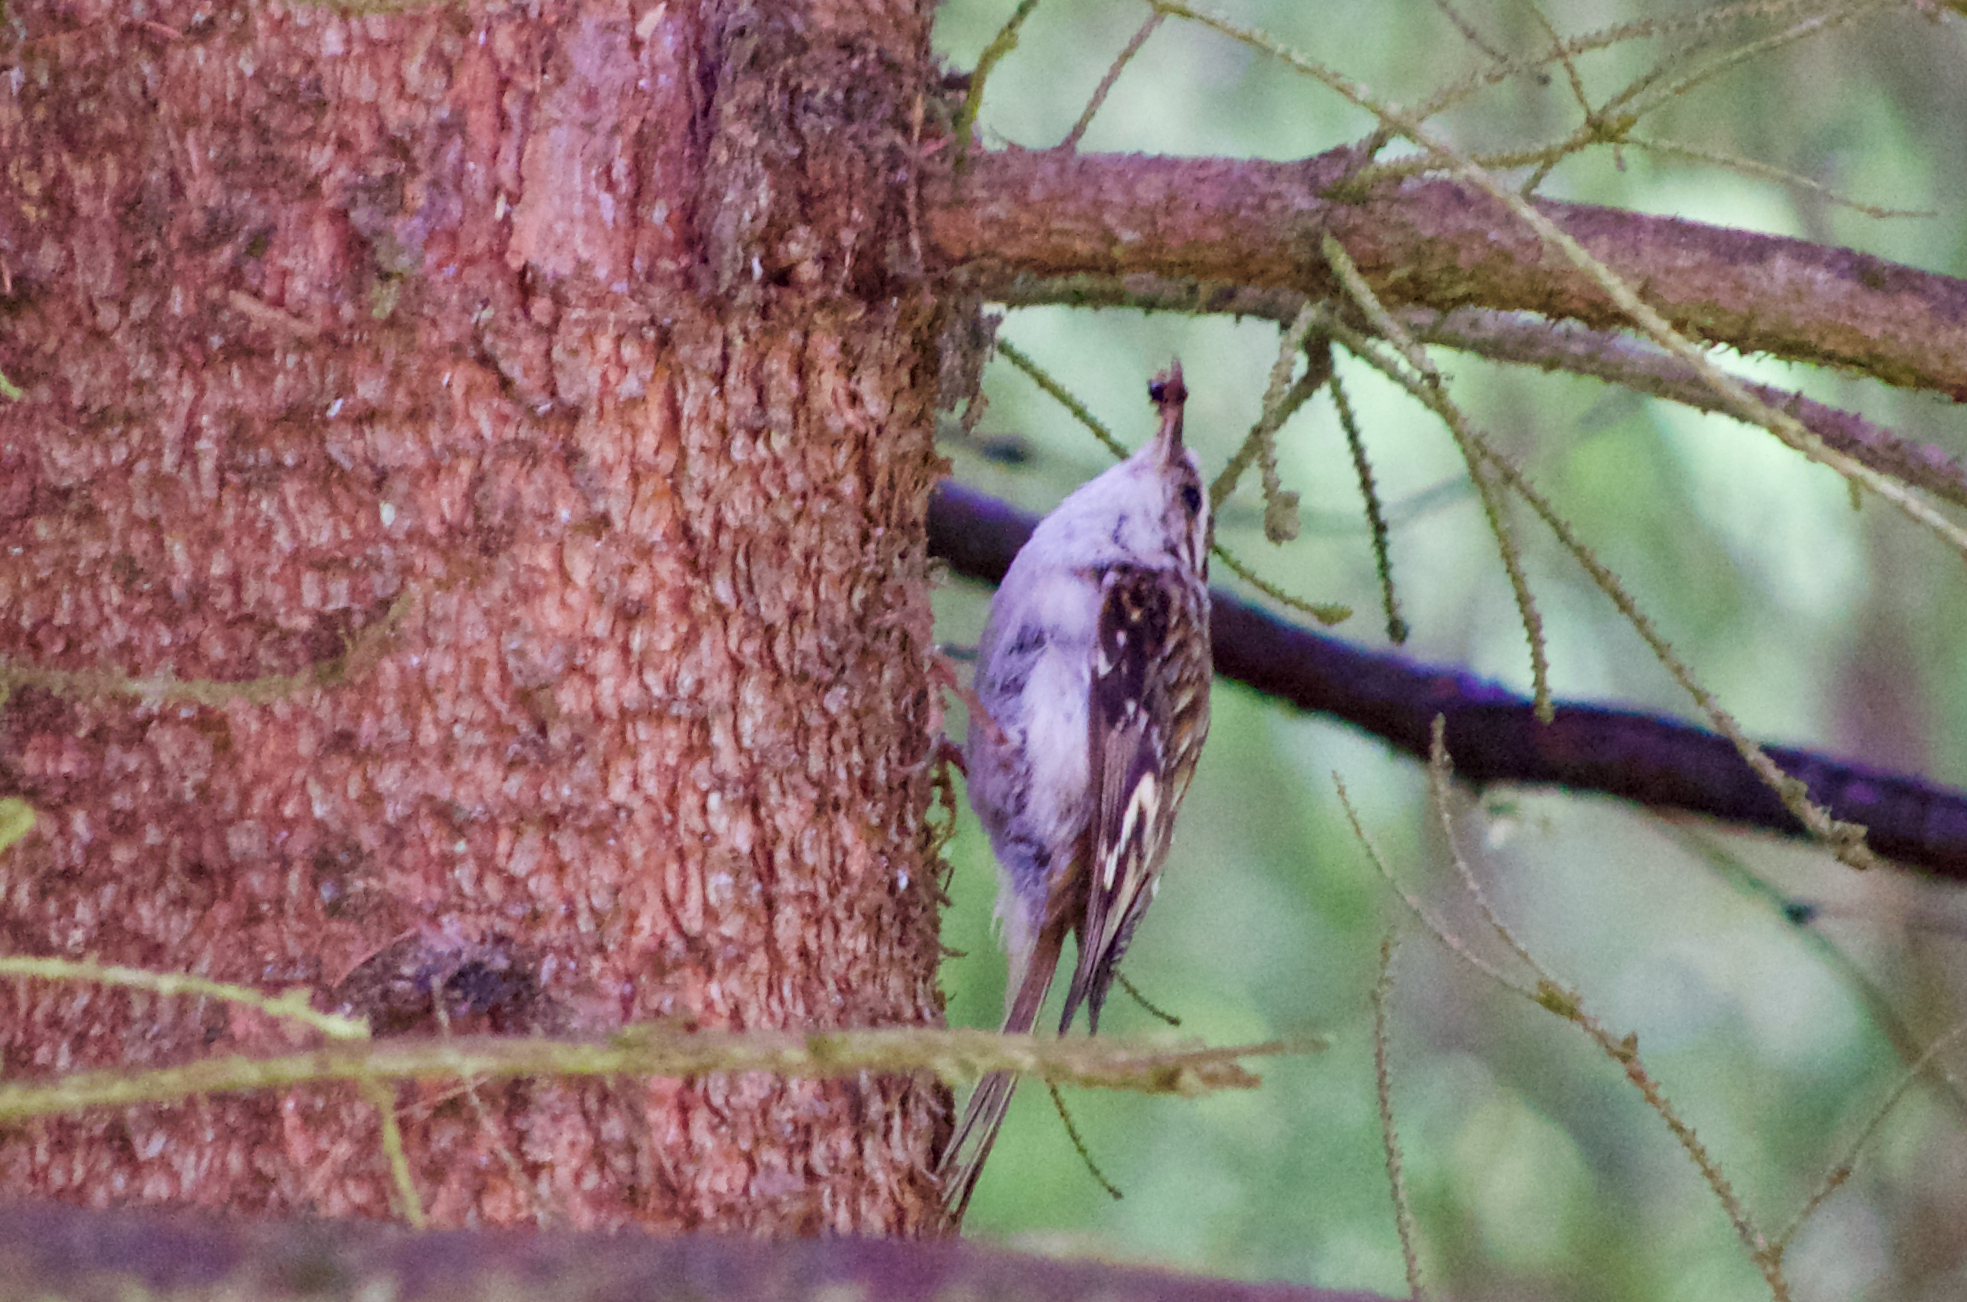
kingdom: Animalia
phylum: Chordata
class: Aves
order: Passeriformes
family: Certhiidae
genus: Certhia
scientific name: Certhia familiaris
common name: Eurasian treecreeper
